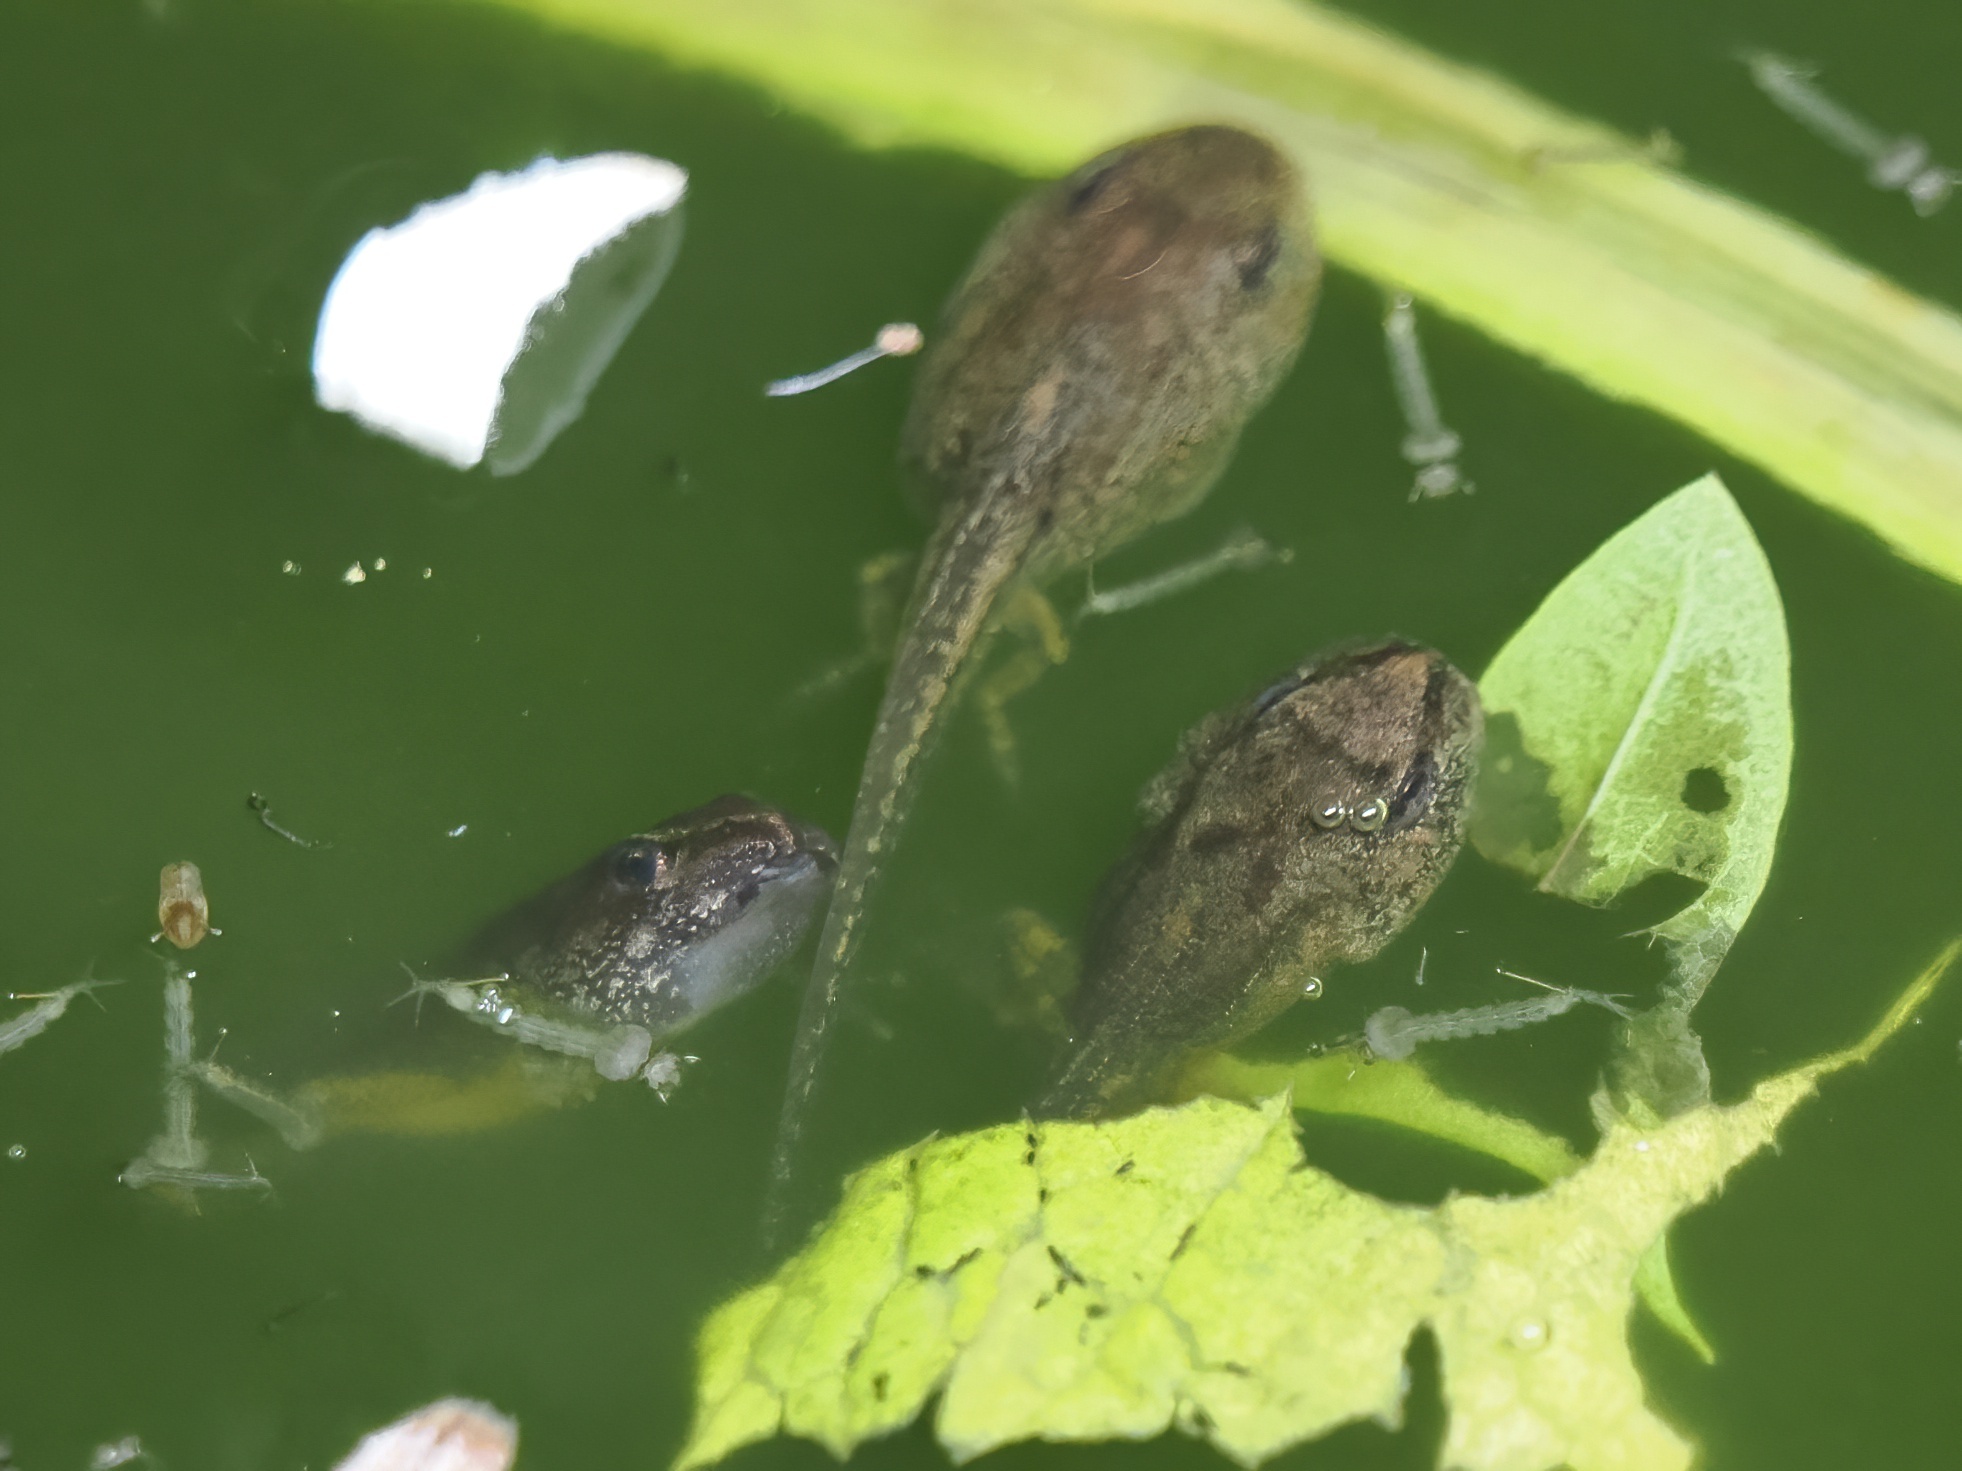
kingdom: Animalia
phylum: Chordata
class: Amphibia
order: Anura
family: Ranidae
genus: Rana
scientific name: Rana latastei
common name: Italian agile frog
